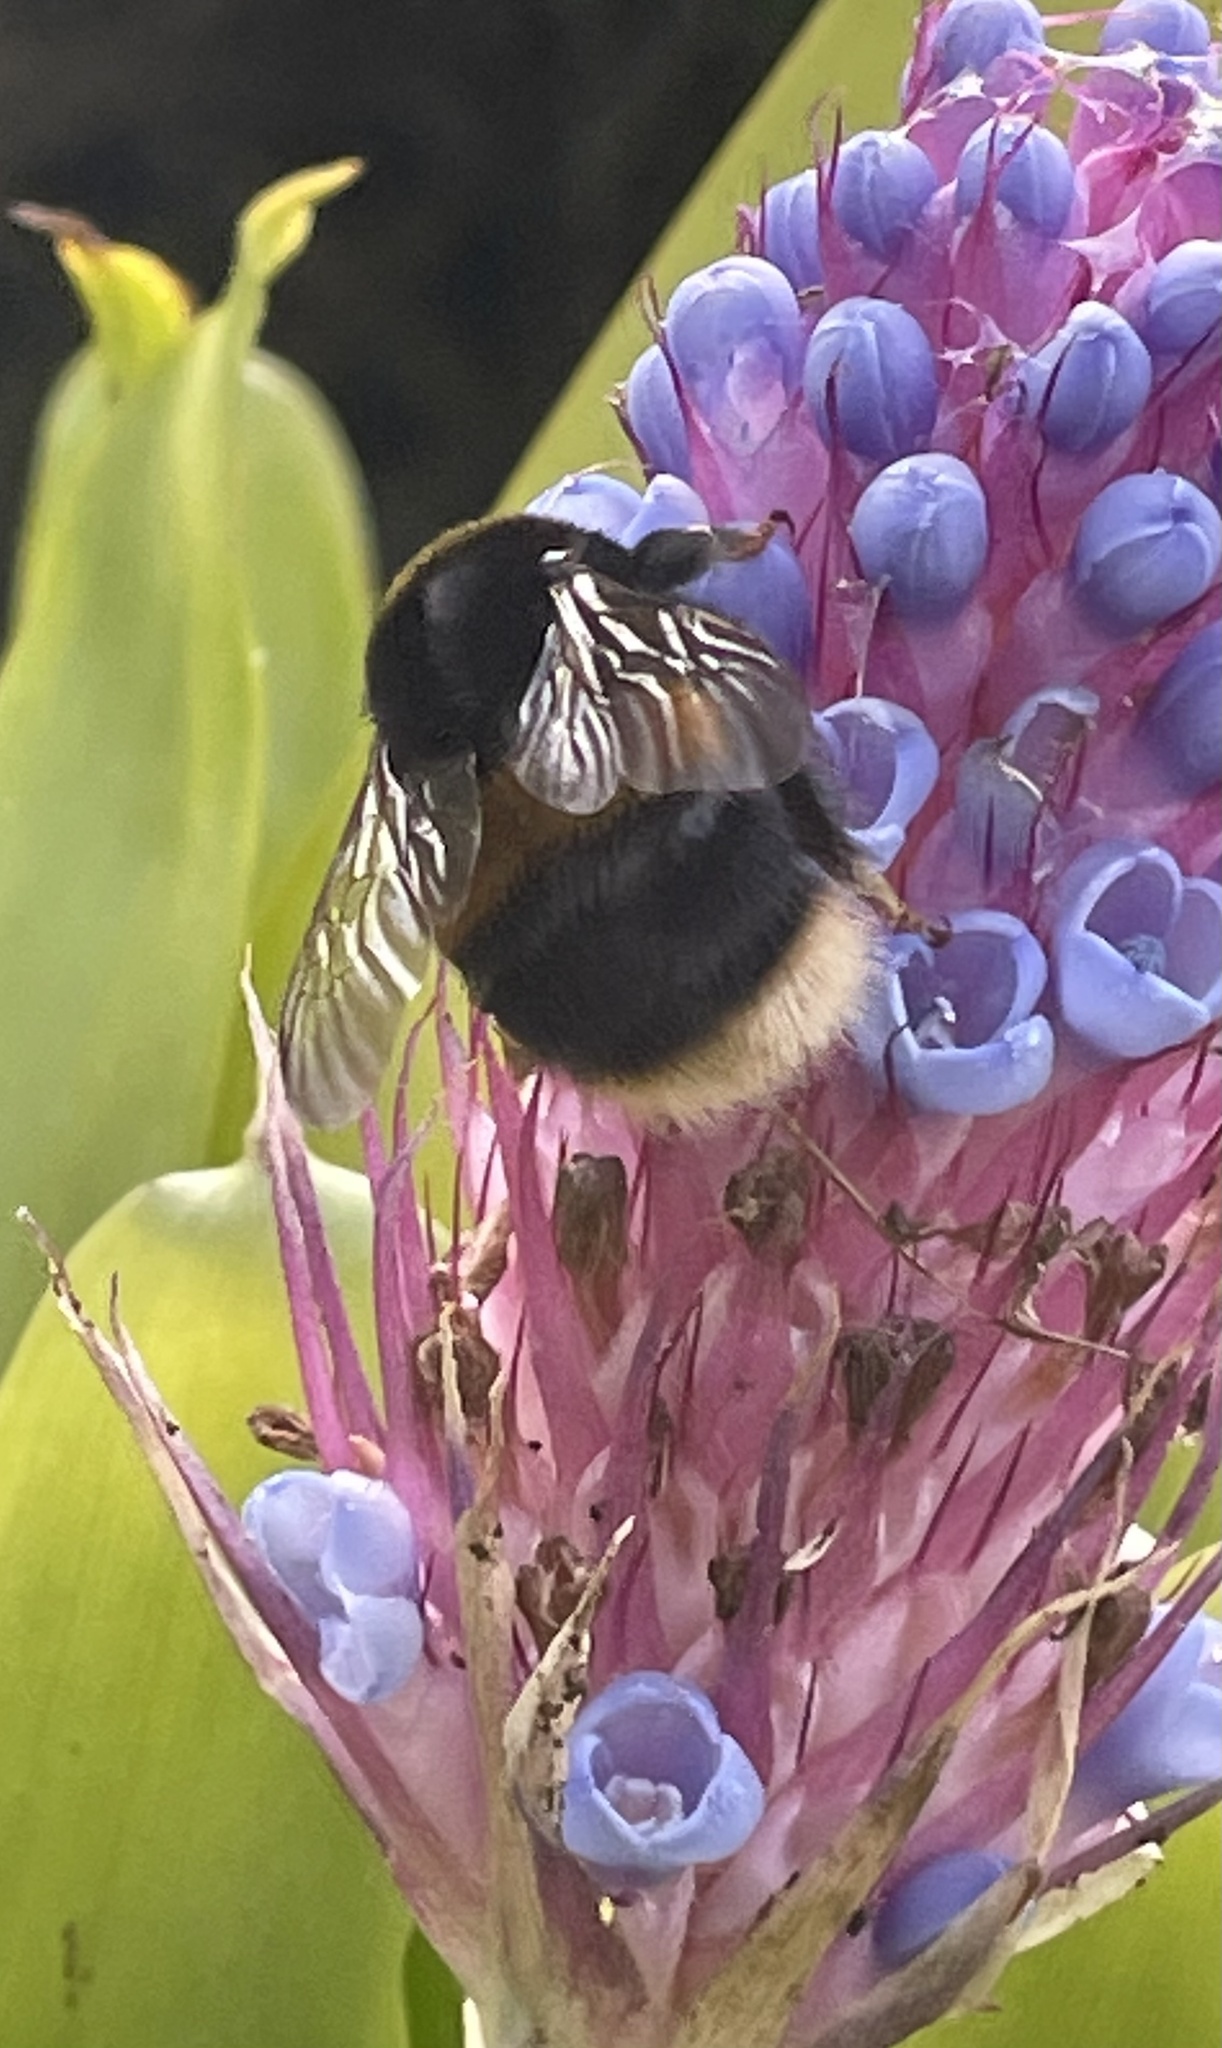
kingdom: Animalia
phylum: Arthropoda
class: Insecta
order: Hymenoptera
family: Apidae
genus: Bombus
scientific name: Bombus terrestris
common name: Buff-tailed bumblebee
